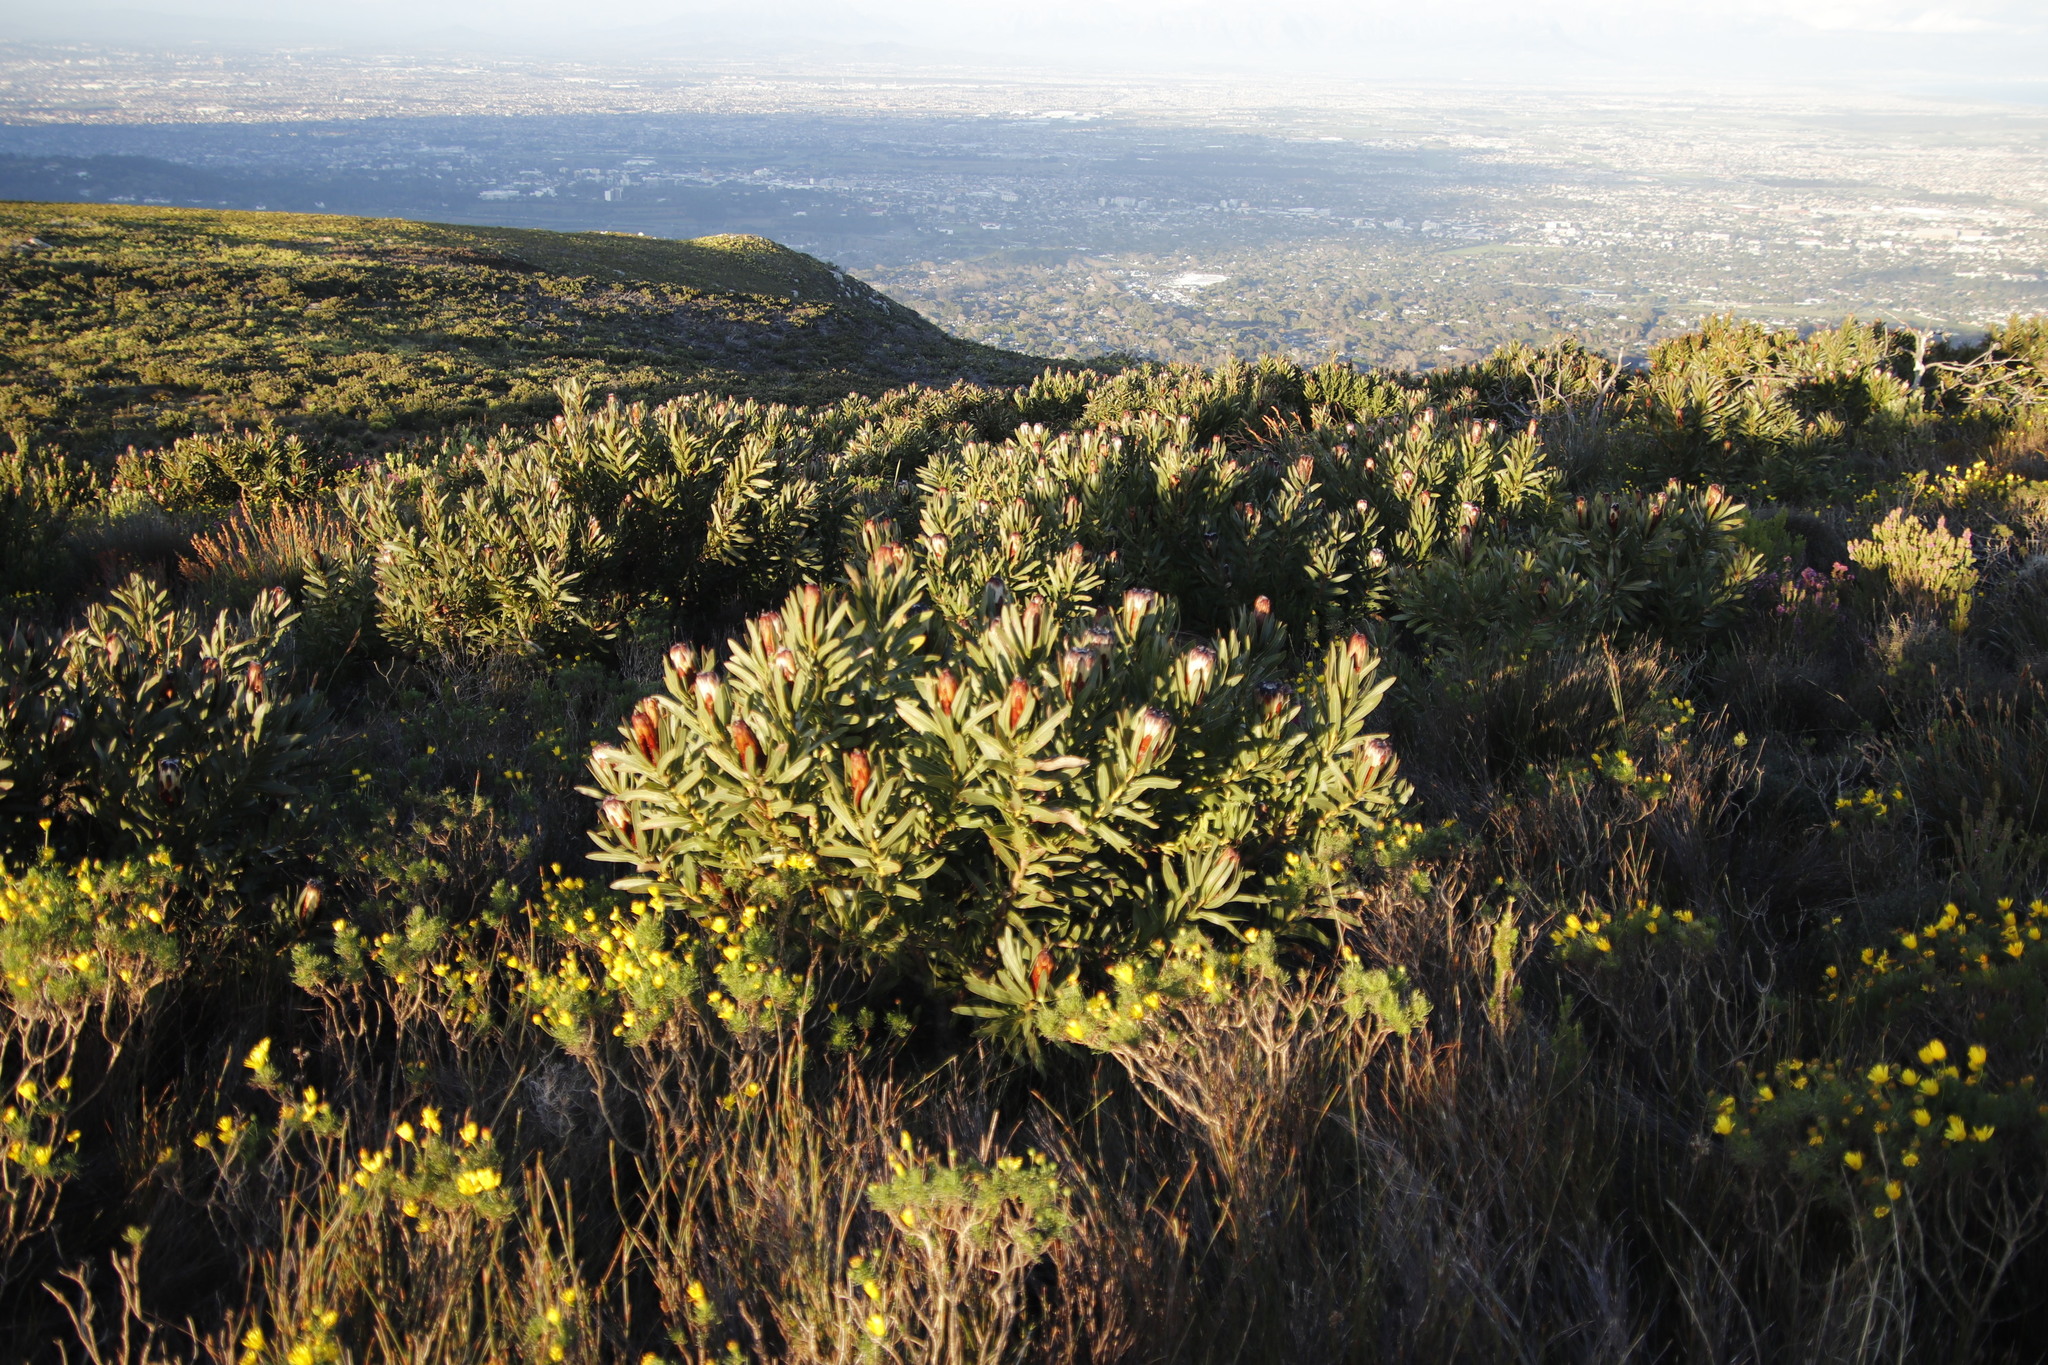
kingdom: Plantae
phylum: Tracheophyta
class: Magnoliopsida
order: Proteales
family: Proteaceae
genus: Protea
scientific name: Protea lepidocarpodendron
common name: Black-bearded protea
